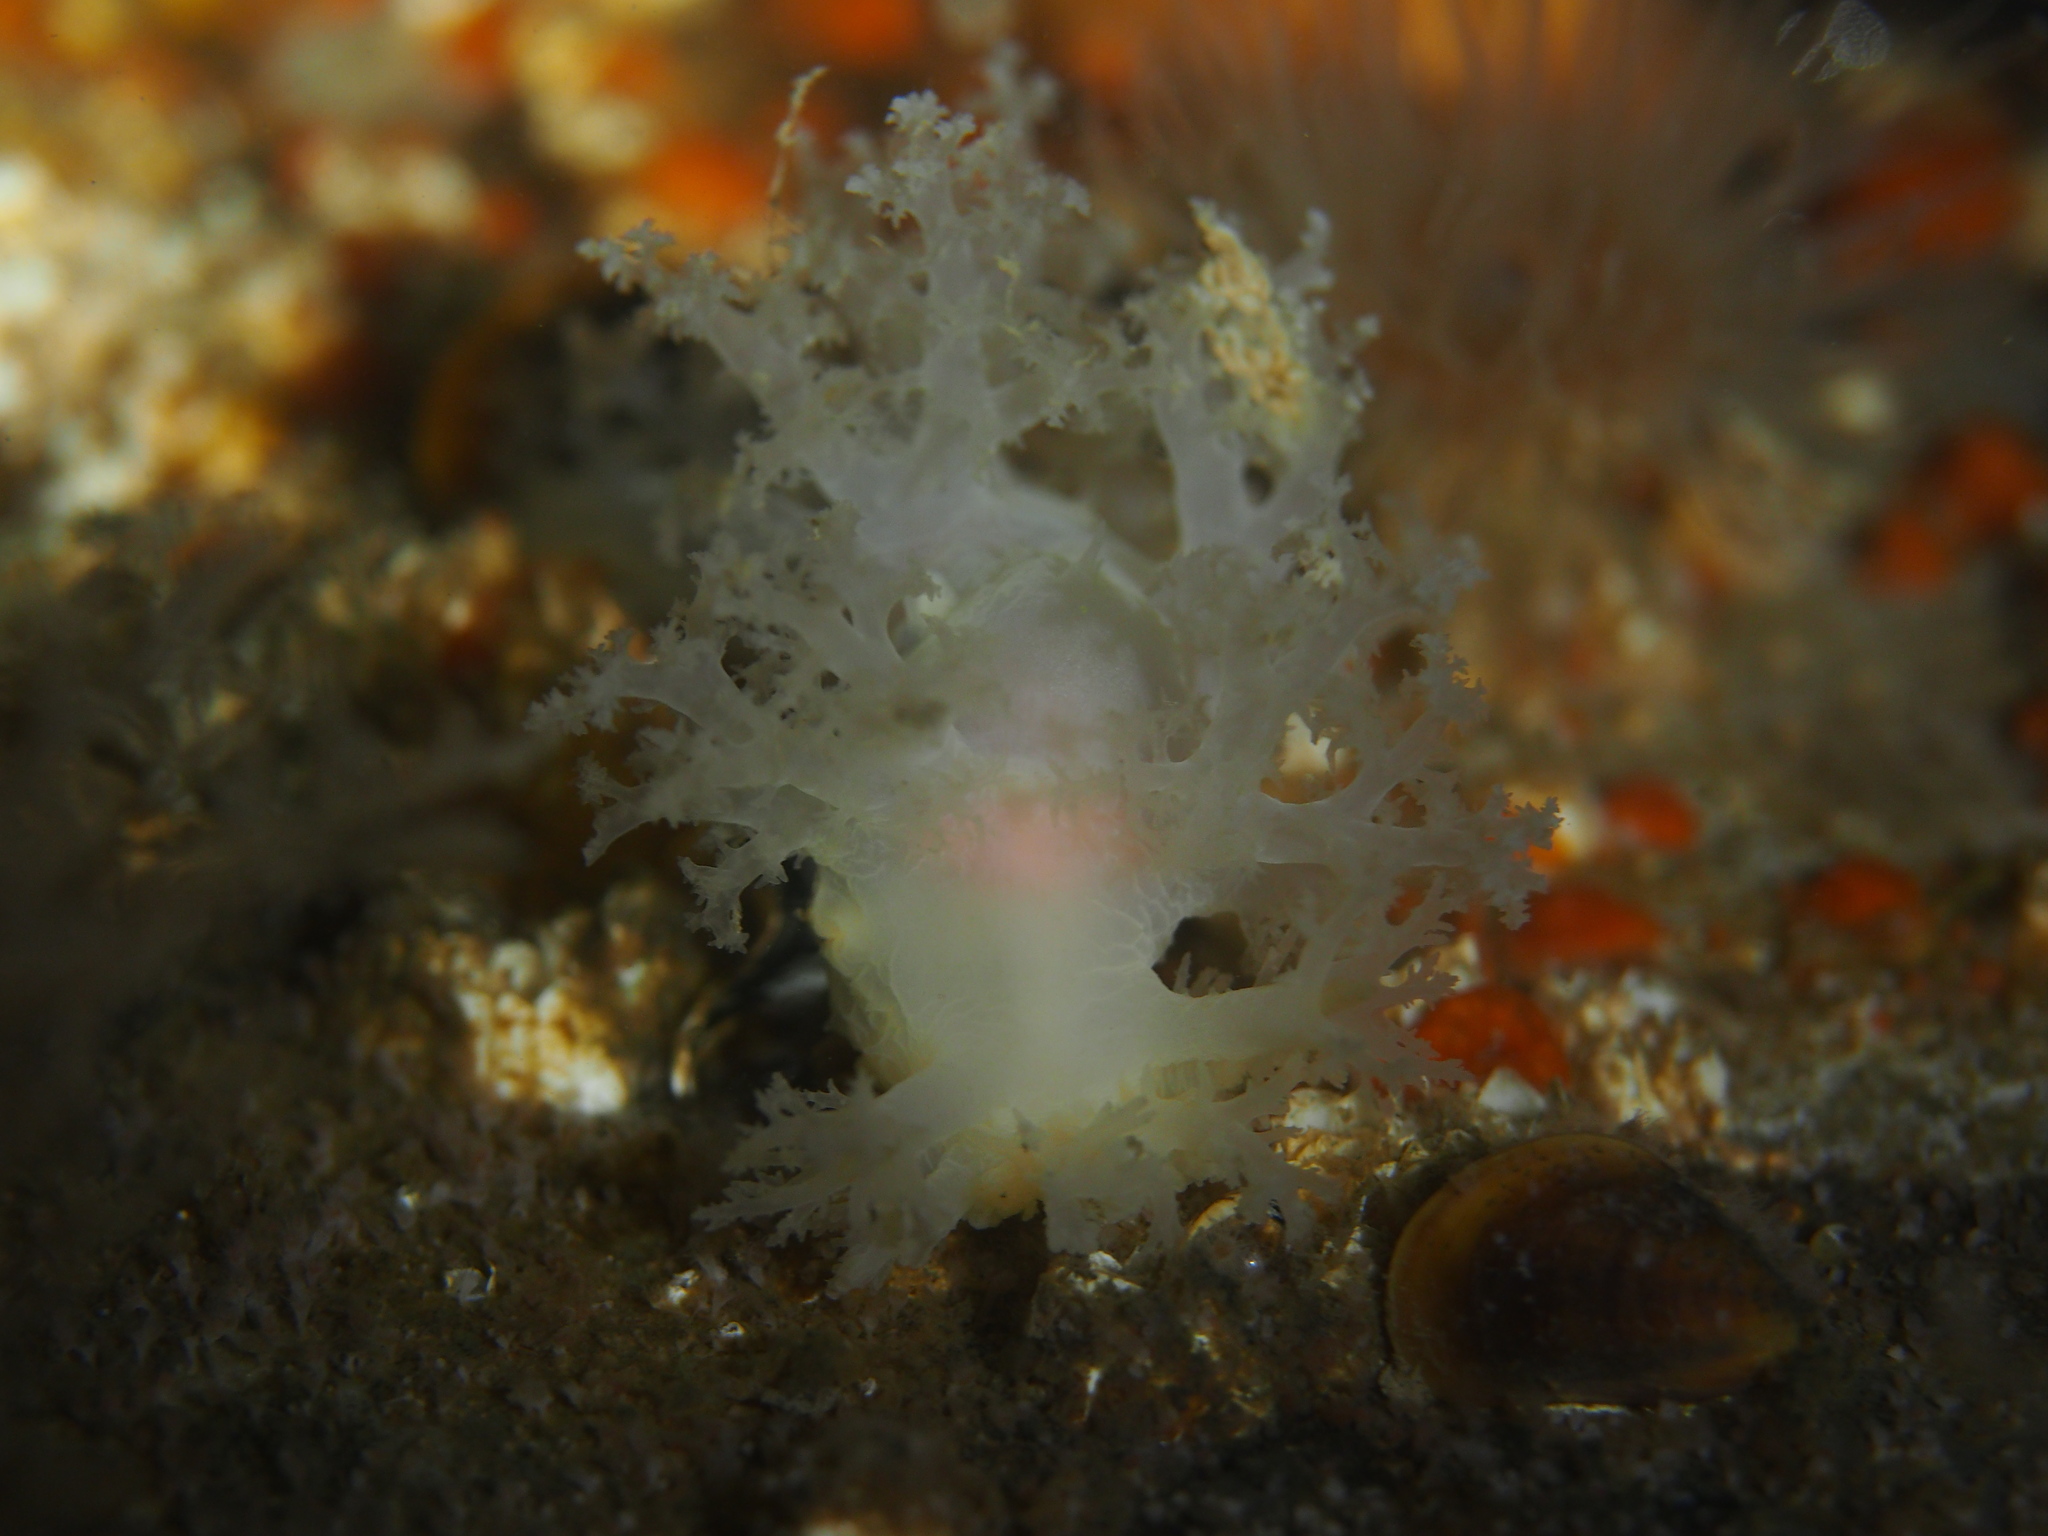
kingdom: Animalia
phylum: Mollusca
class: Gastropoda
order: Nudibranchia
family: Dendronotidae
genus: Dendronotus
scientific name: Dendronotus lacteus
